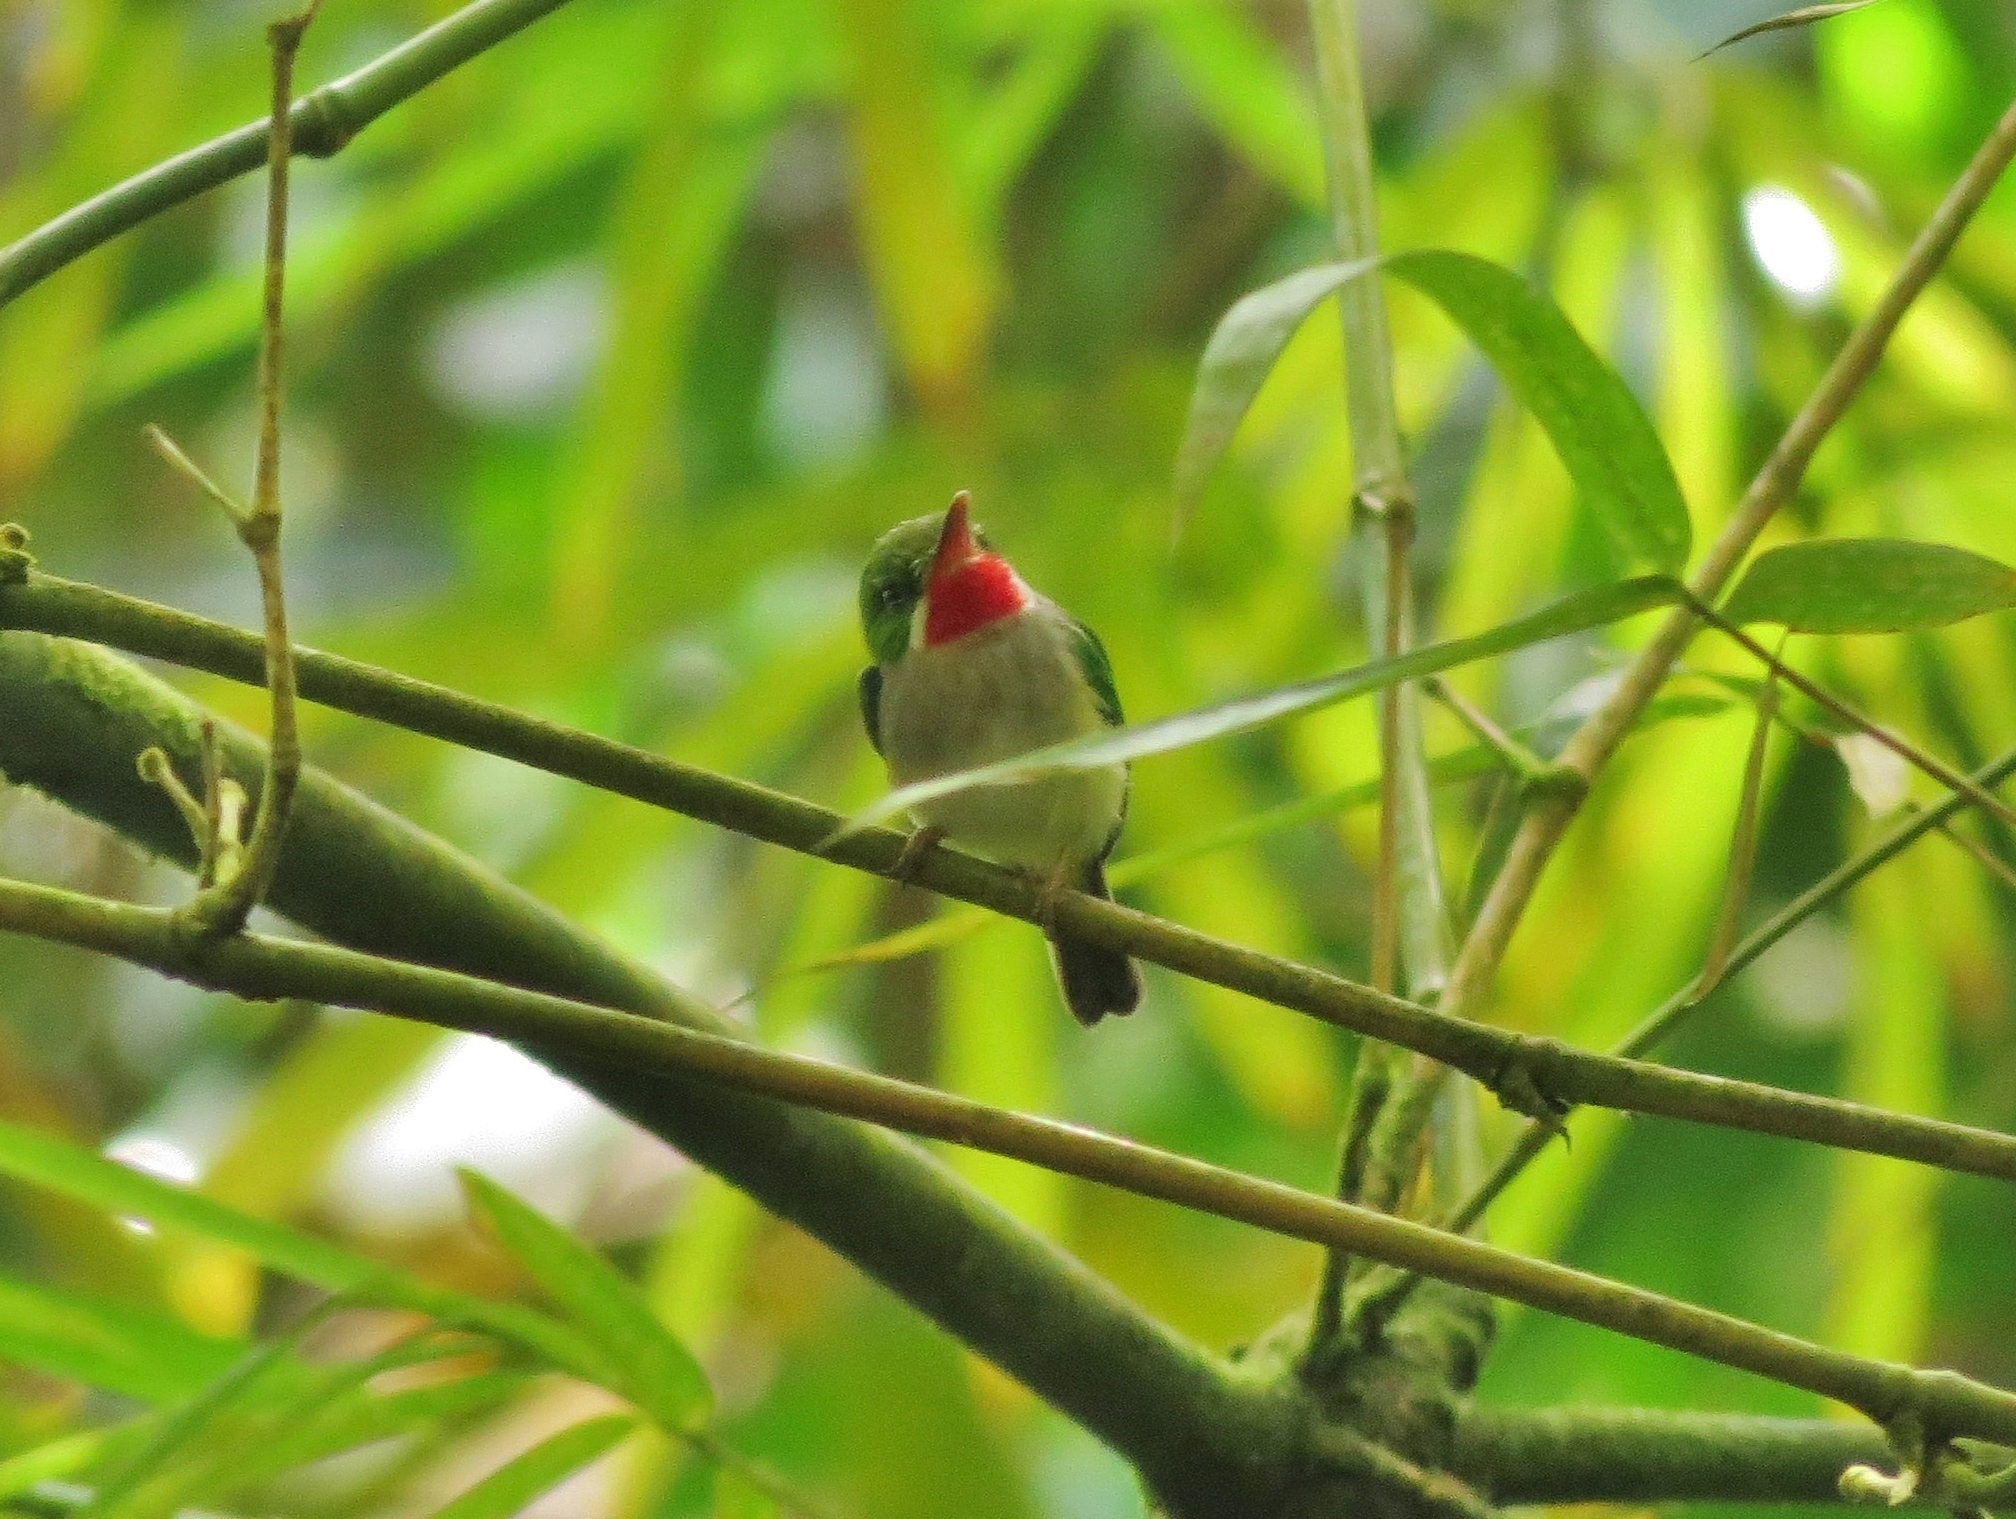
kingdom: Animalia
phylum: Chordata
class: Aves
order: Coraciiformes
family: Todidae
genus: Todus
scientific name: Todus mexicanus
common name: Puerto rican tody
